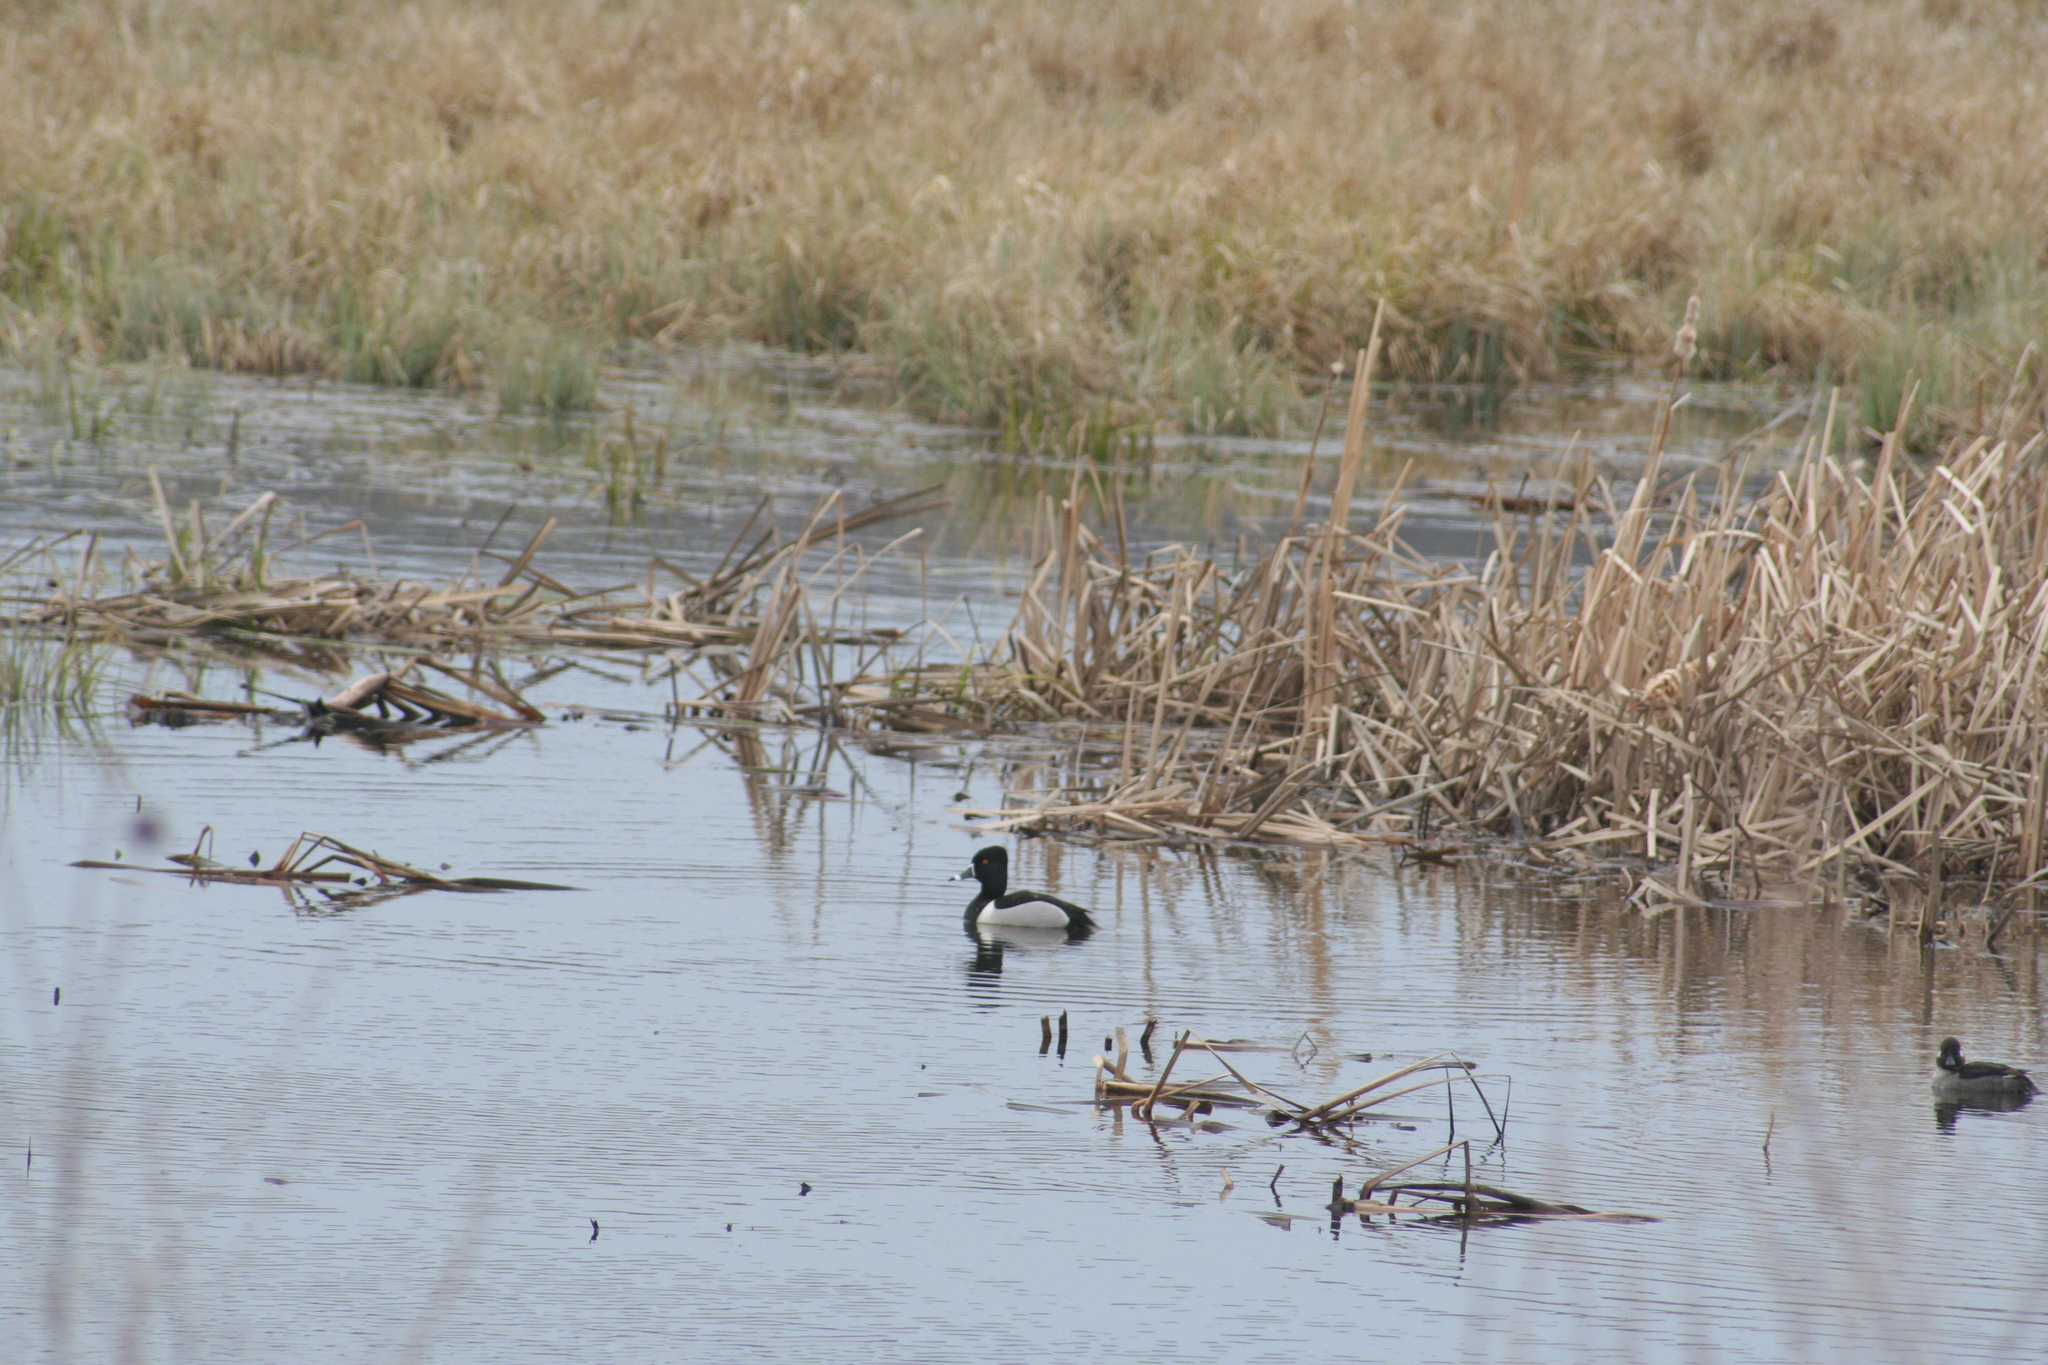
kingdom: Animalia
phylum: Chordata
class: Aves
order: Anseriformes
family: Anatidae
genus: Aythya
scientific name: Aythya collaris
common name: Ring-necked duck
